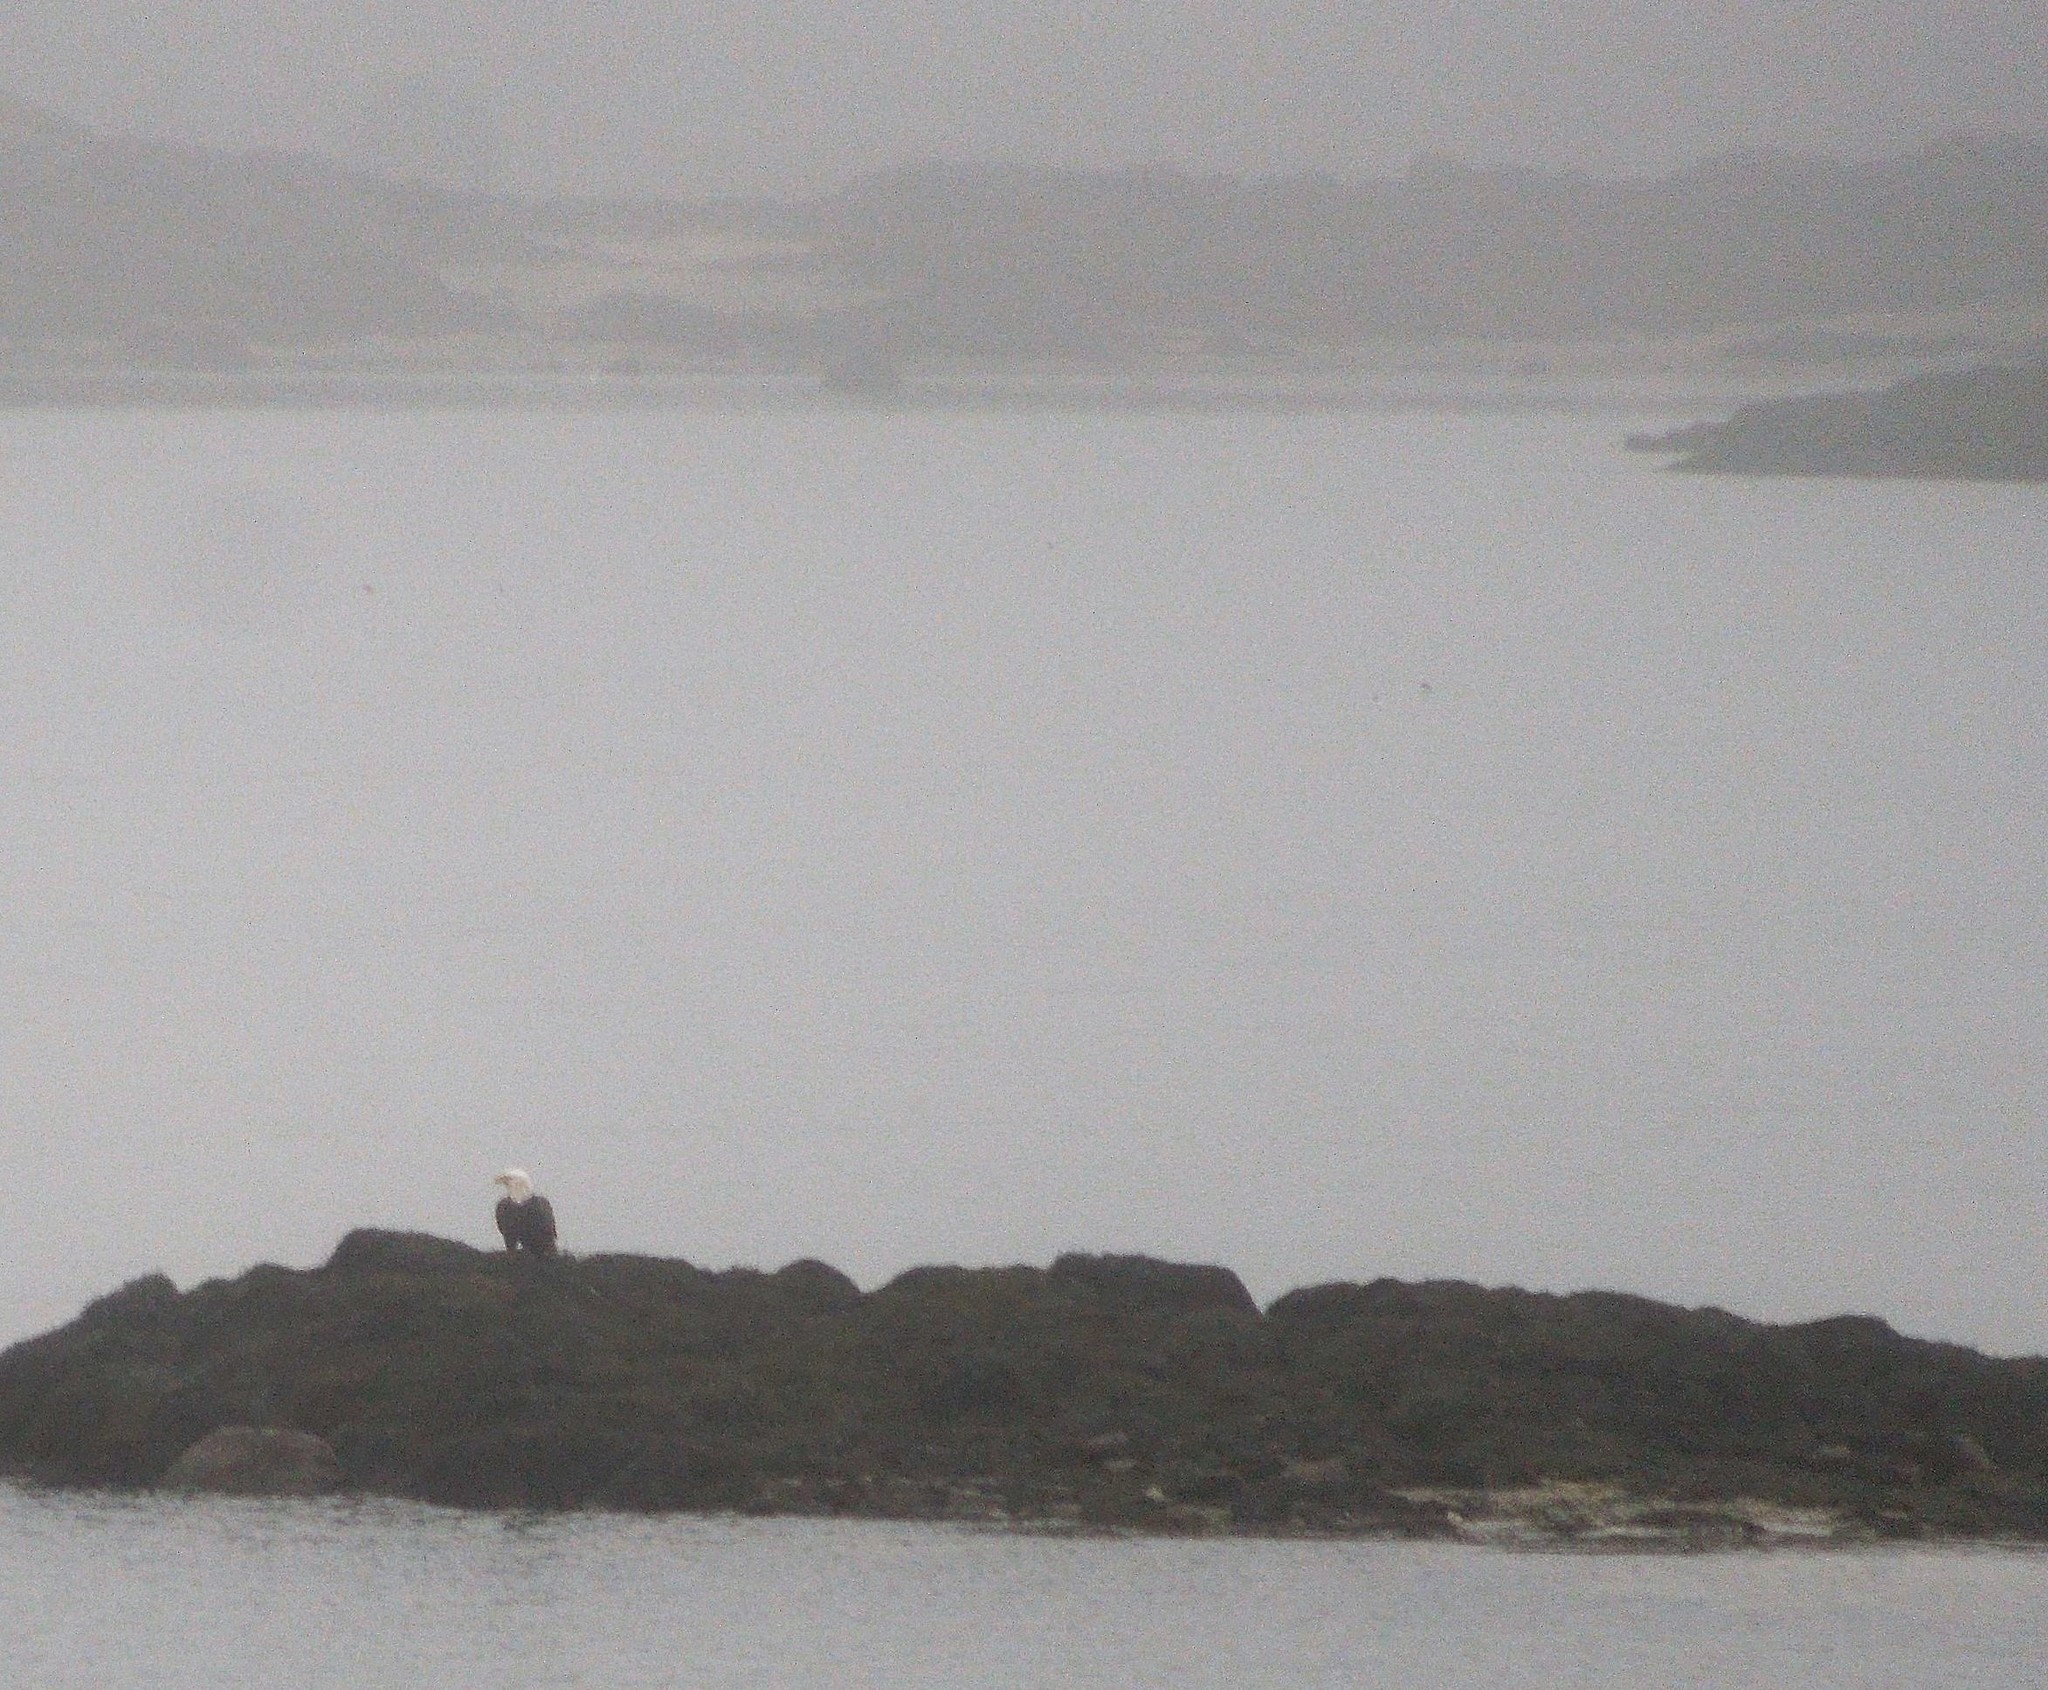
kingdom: Animalia
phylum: Chordata
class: Aves
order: Accipitriformes
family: Accipitridae
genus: Haliaeetus
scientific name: Haliaeetus leucocephalus
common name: Bald eagle
